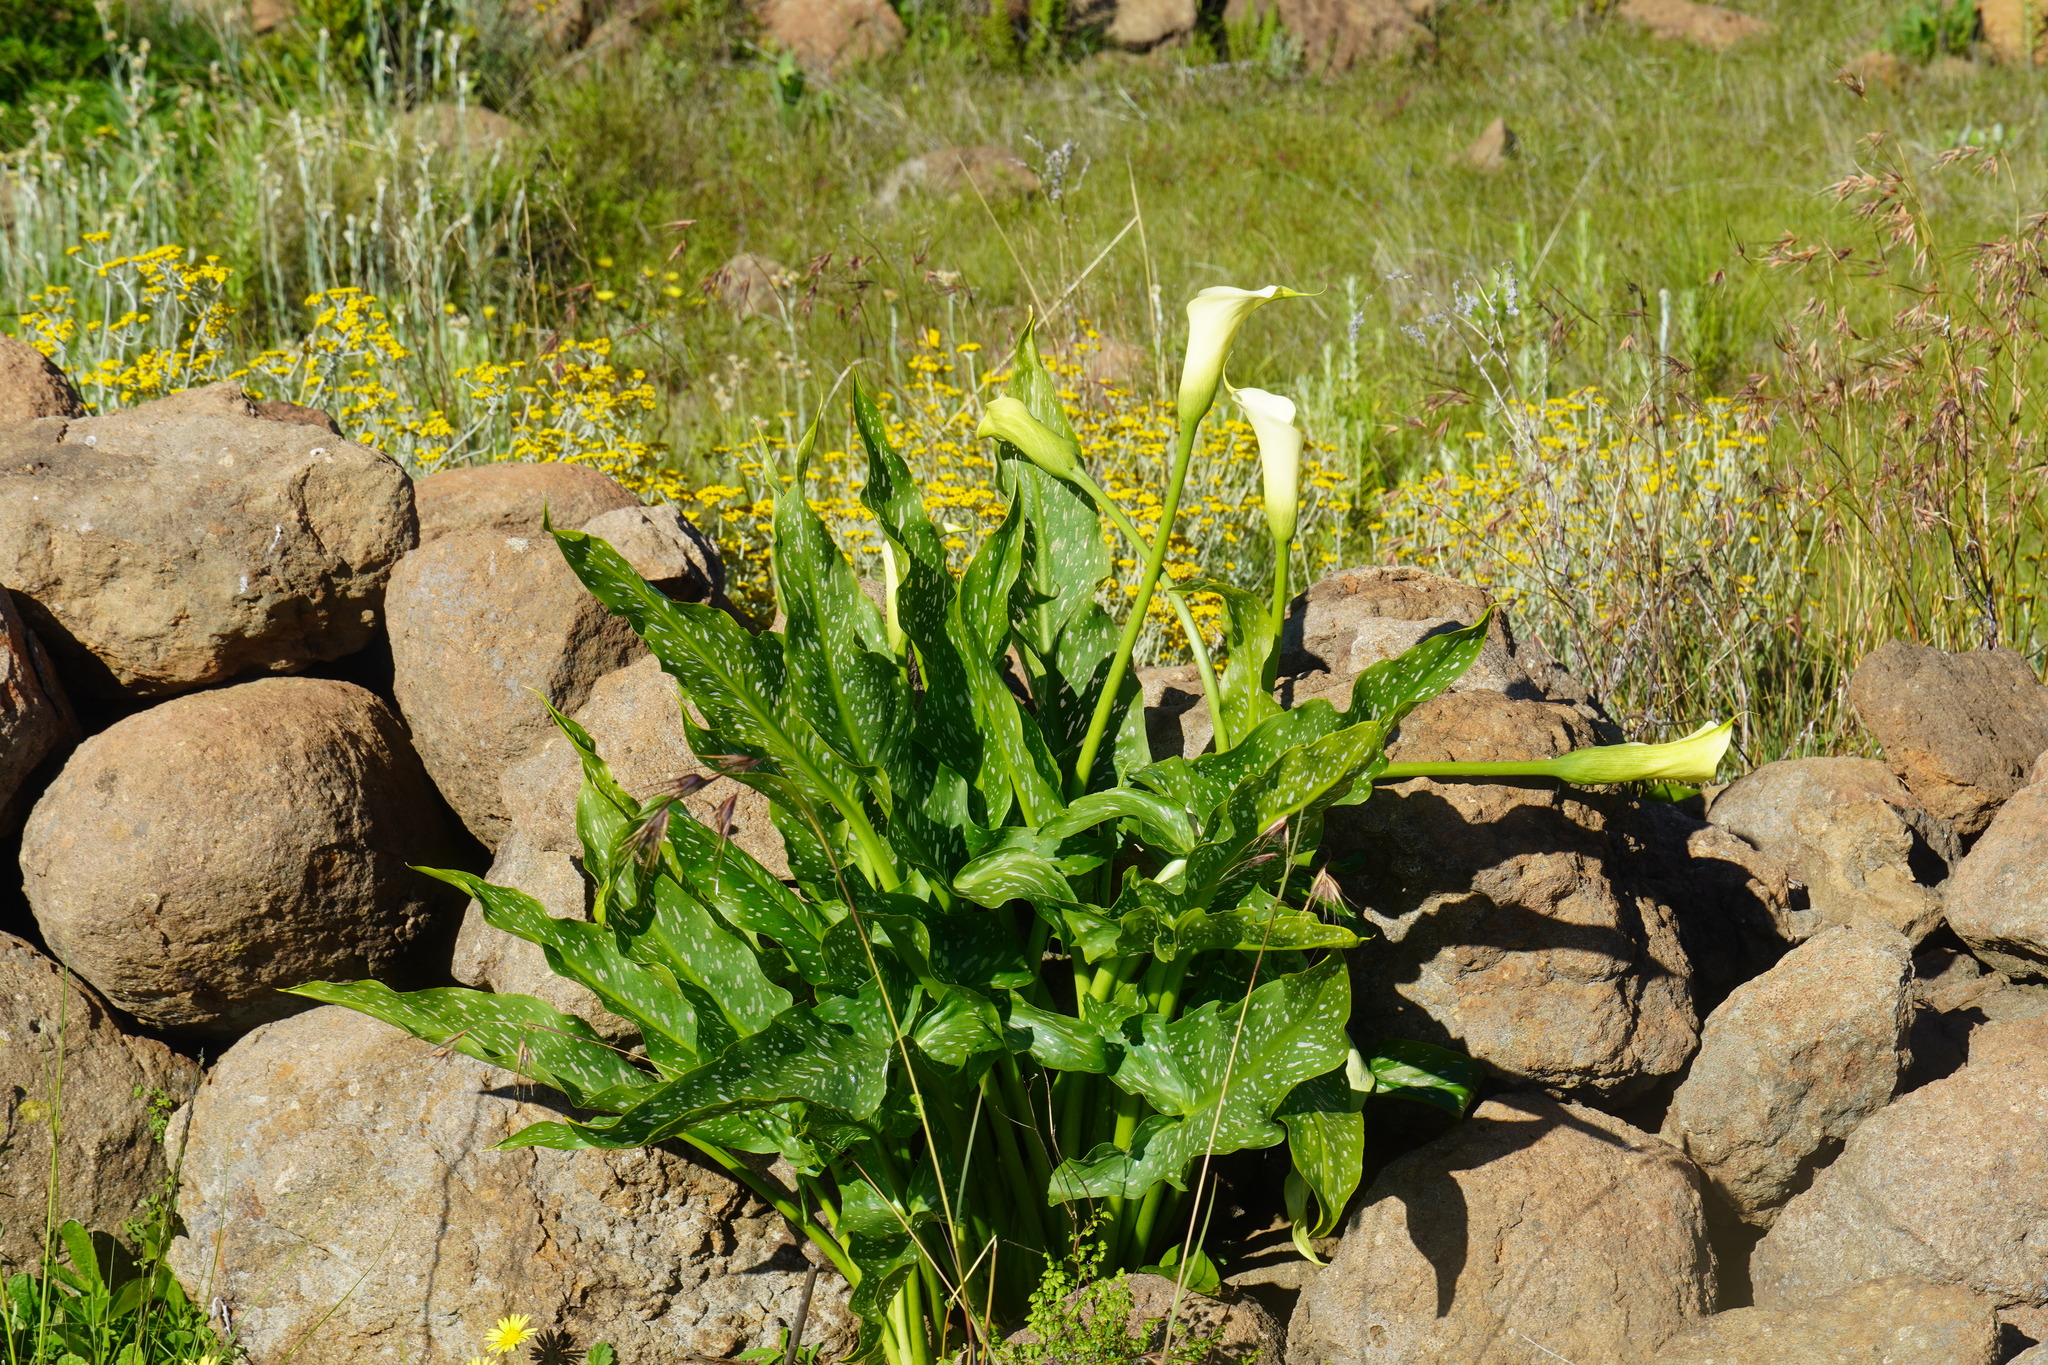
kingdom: Plantae
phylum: Tracheophyta
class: Liliopsida
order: Alismatales
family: Araceae
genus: Zantedeschia
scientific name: Zantedeschia albomaculata
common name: Spotted calla lily
